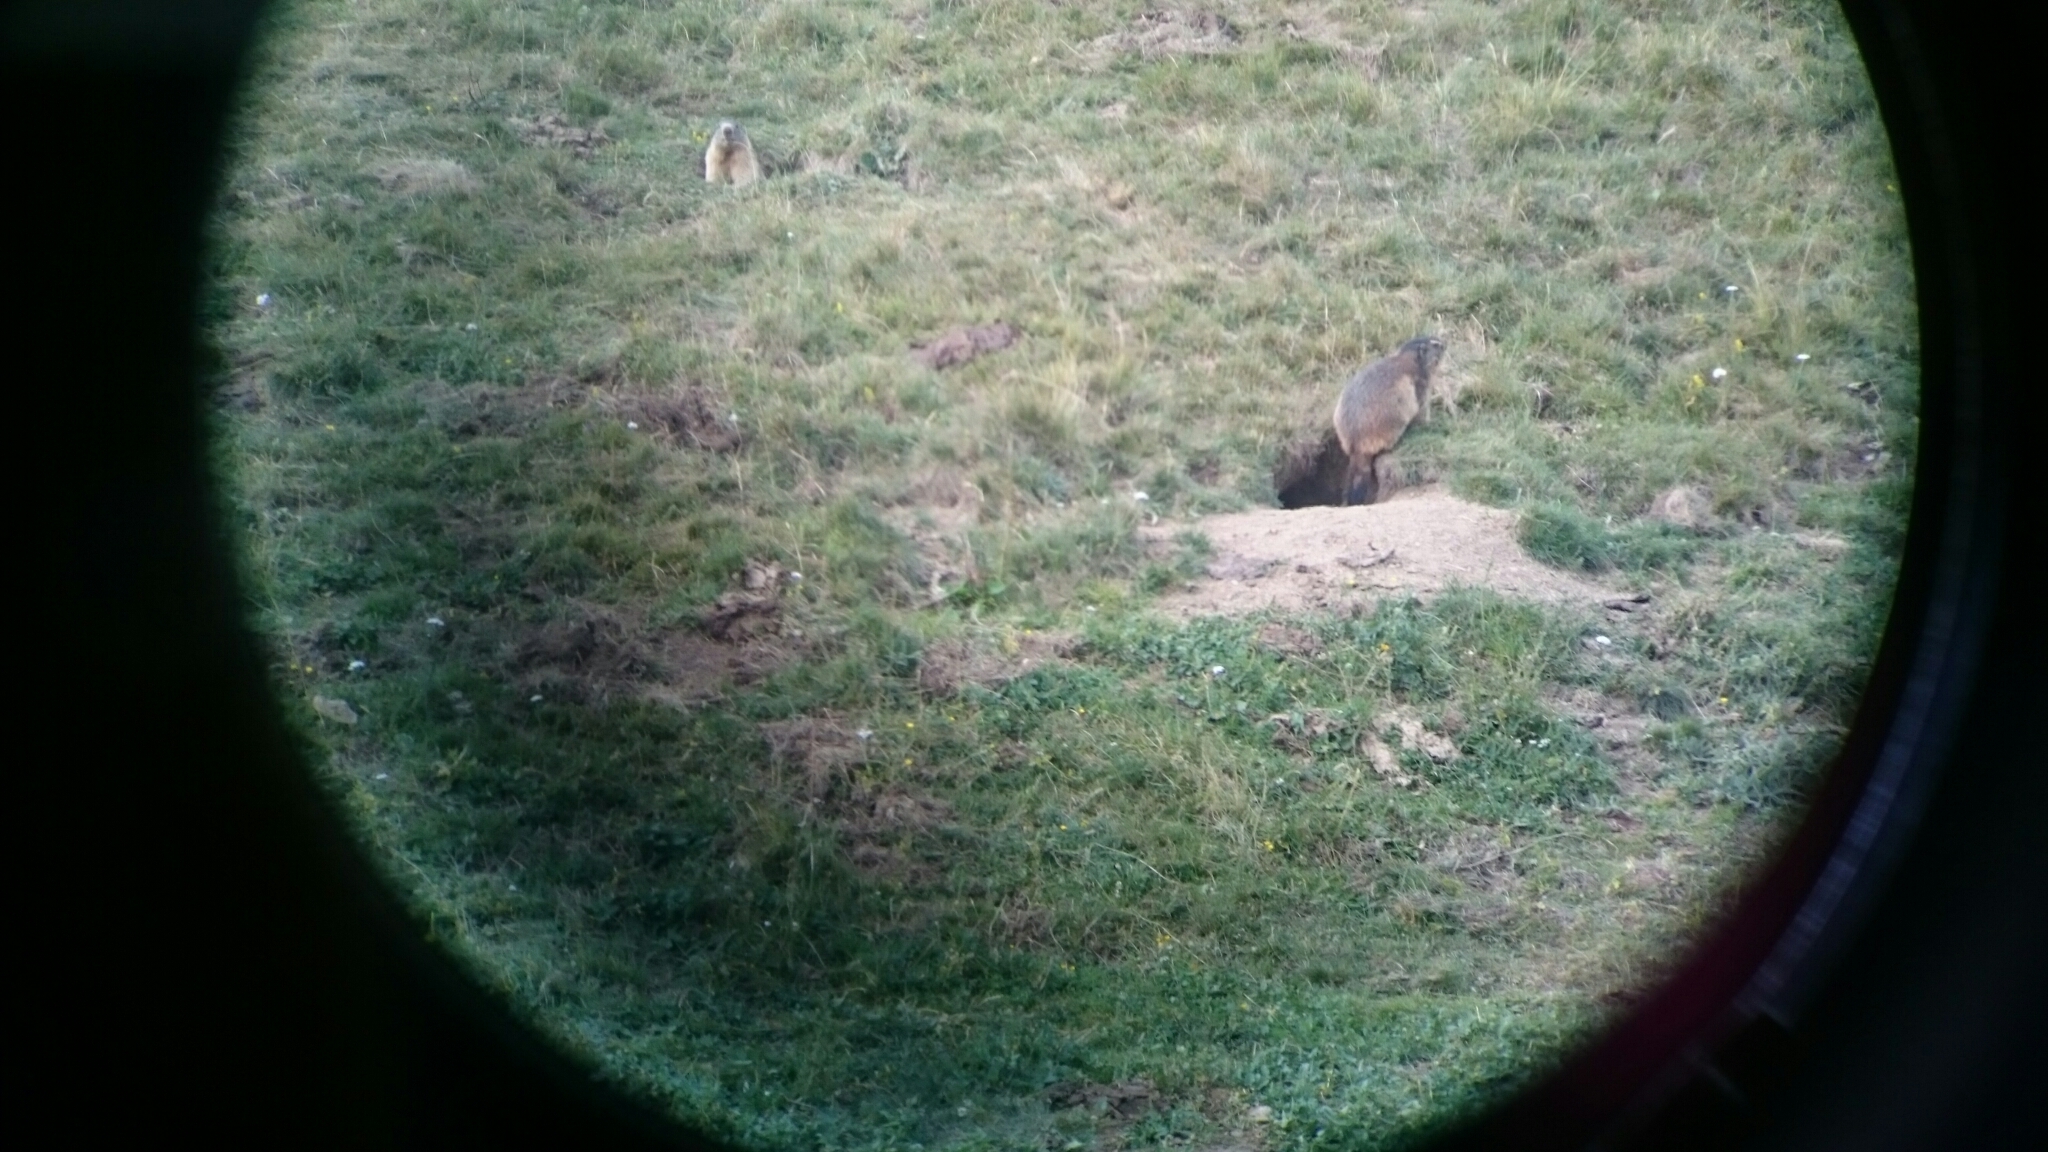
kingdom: Animalia
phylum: Chordata
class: Mammalia
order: Rodentia
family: Sciuridae
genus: Marmota
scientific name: Marmota marmota
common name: Alpine marmot
